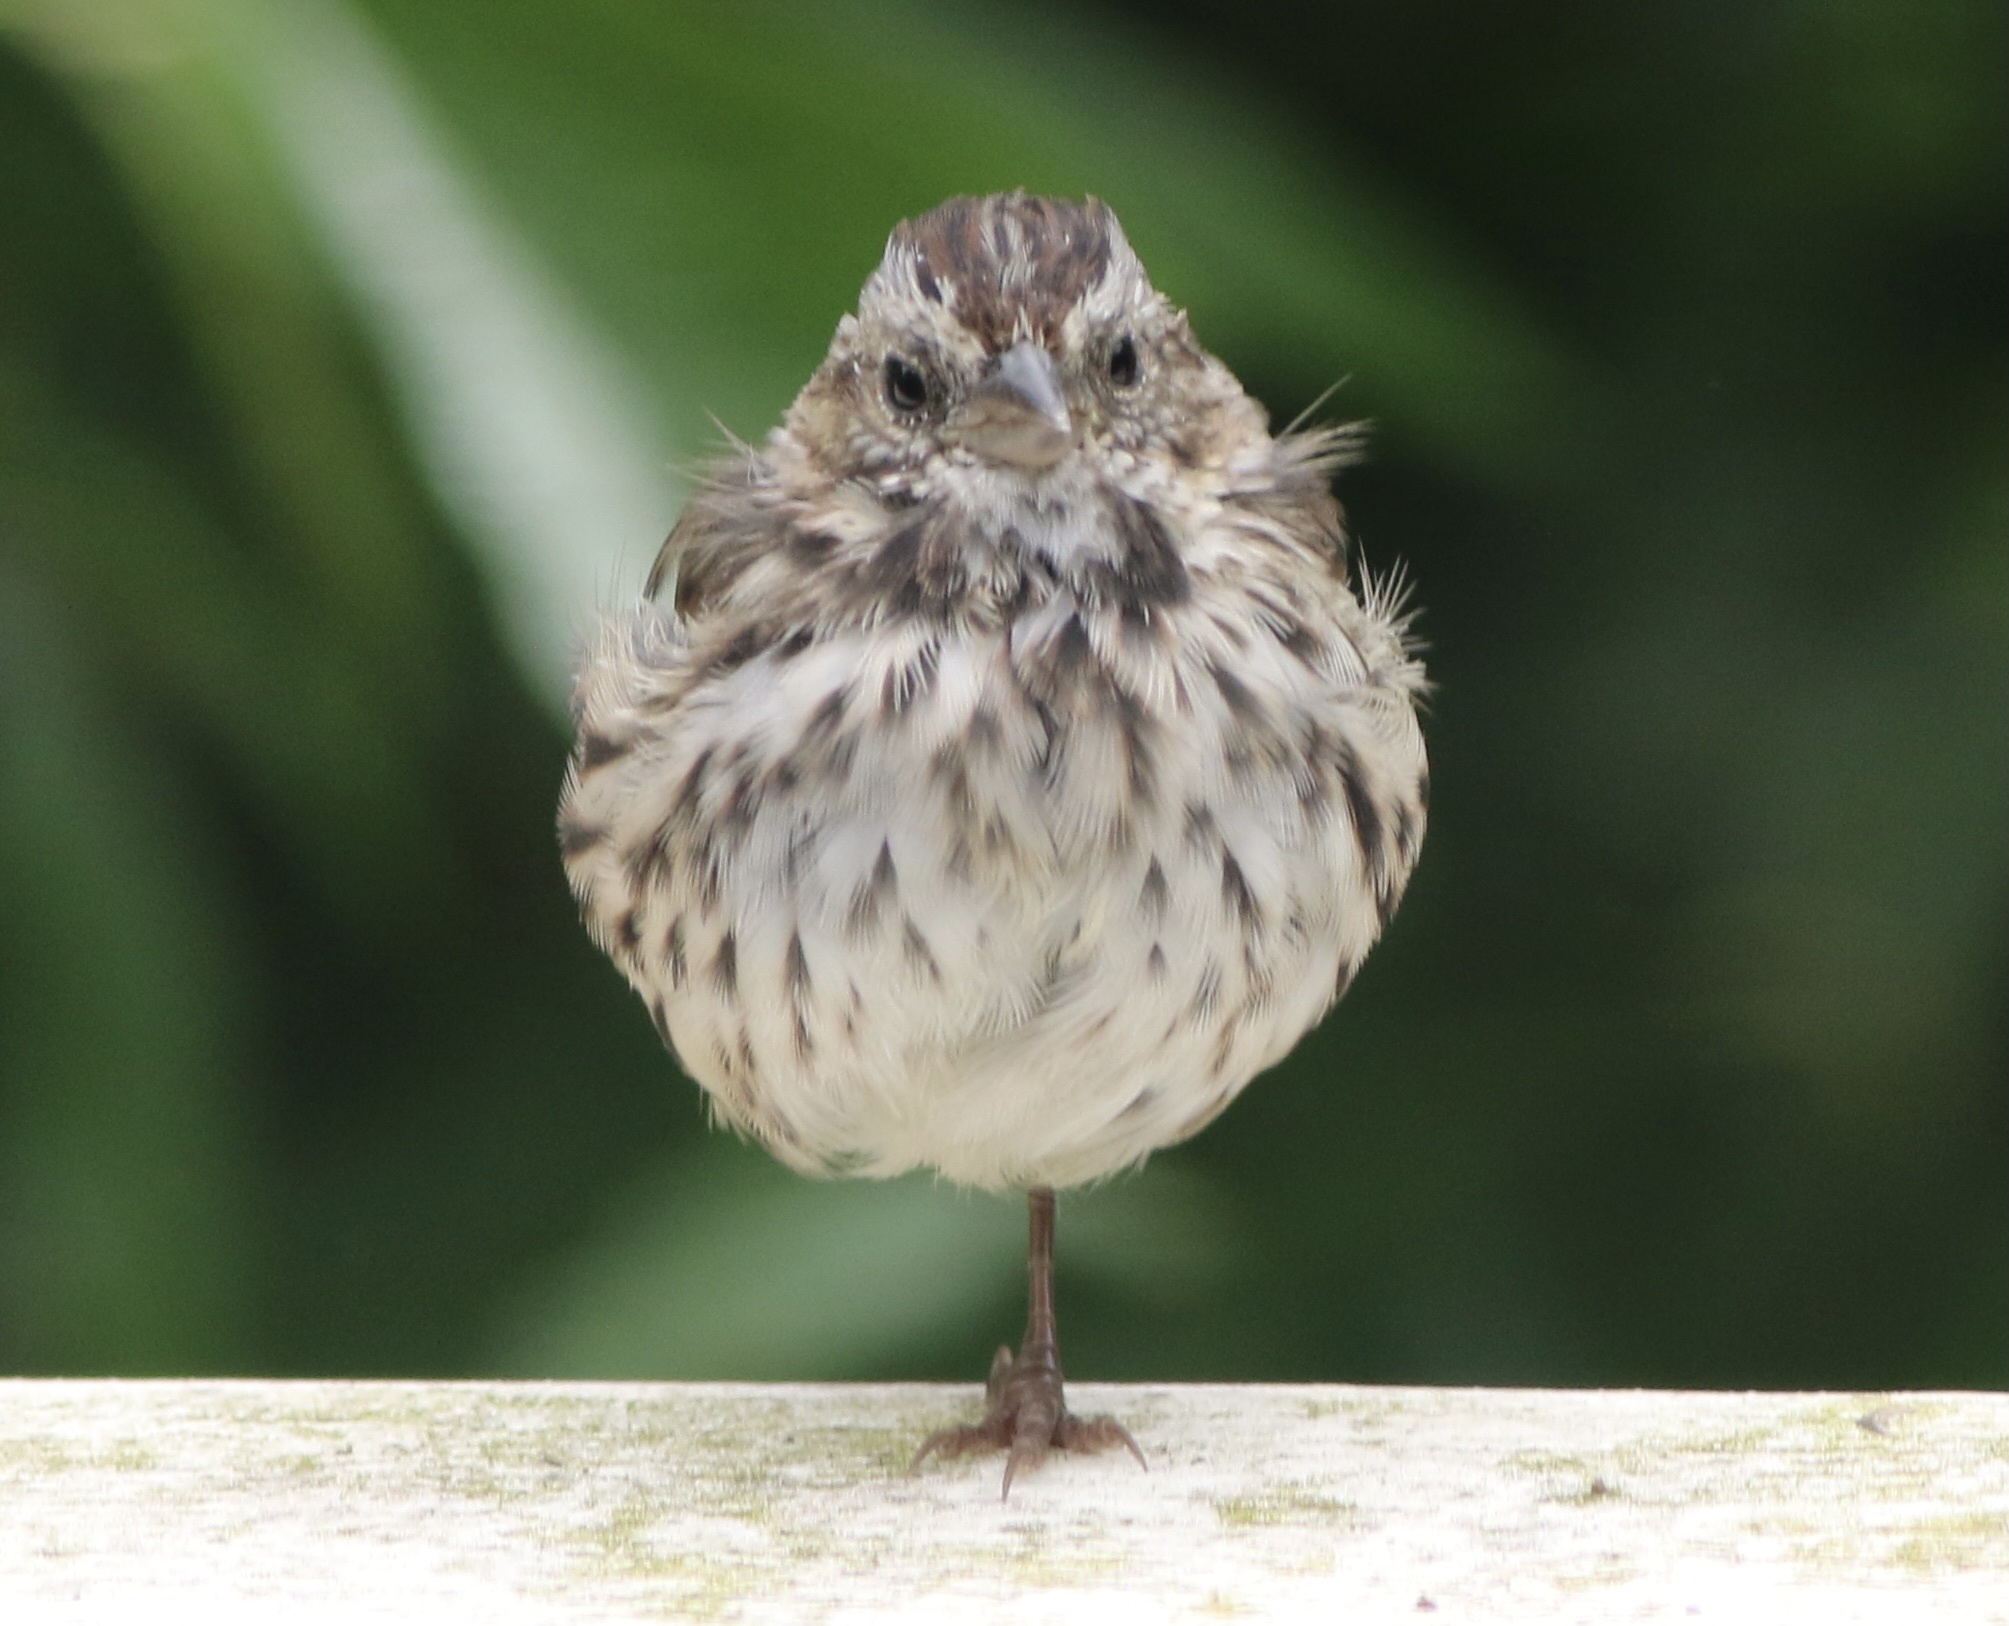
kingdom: Animalia
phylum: Chordata
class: Aves
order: Passeriformes
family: Passerellidae
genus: Melospiza
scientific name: Melospiza melodia
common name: Song sparrow
